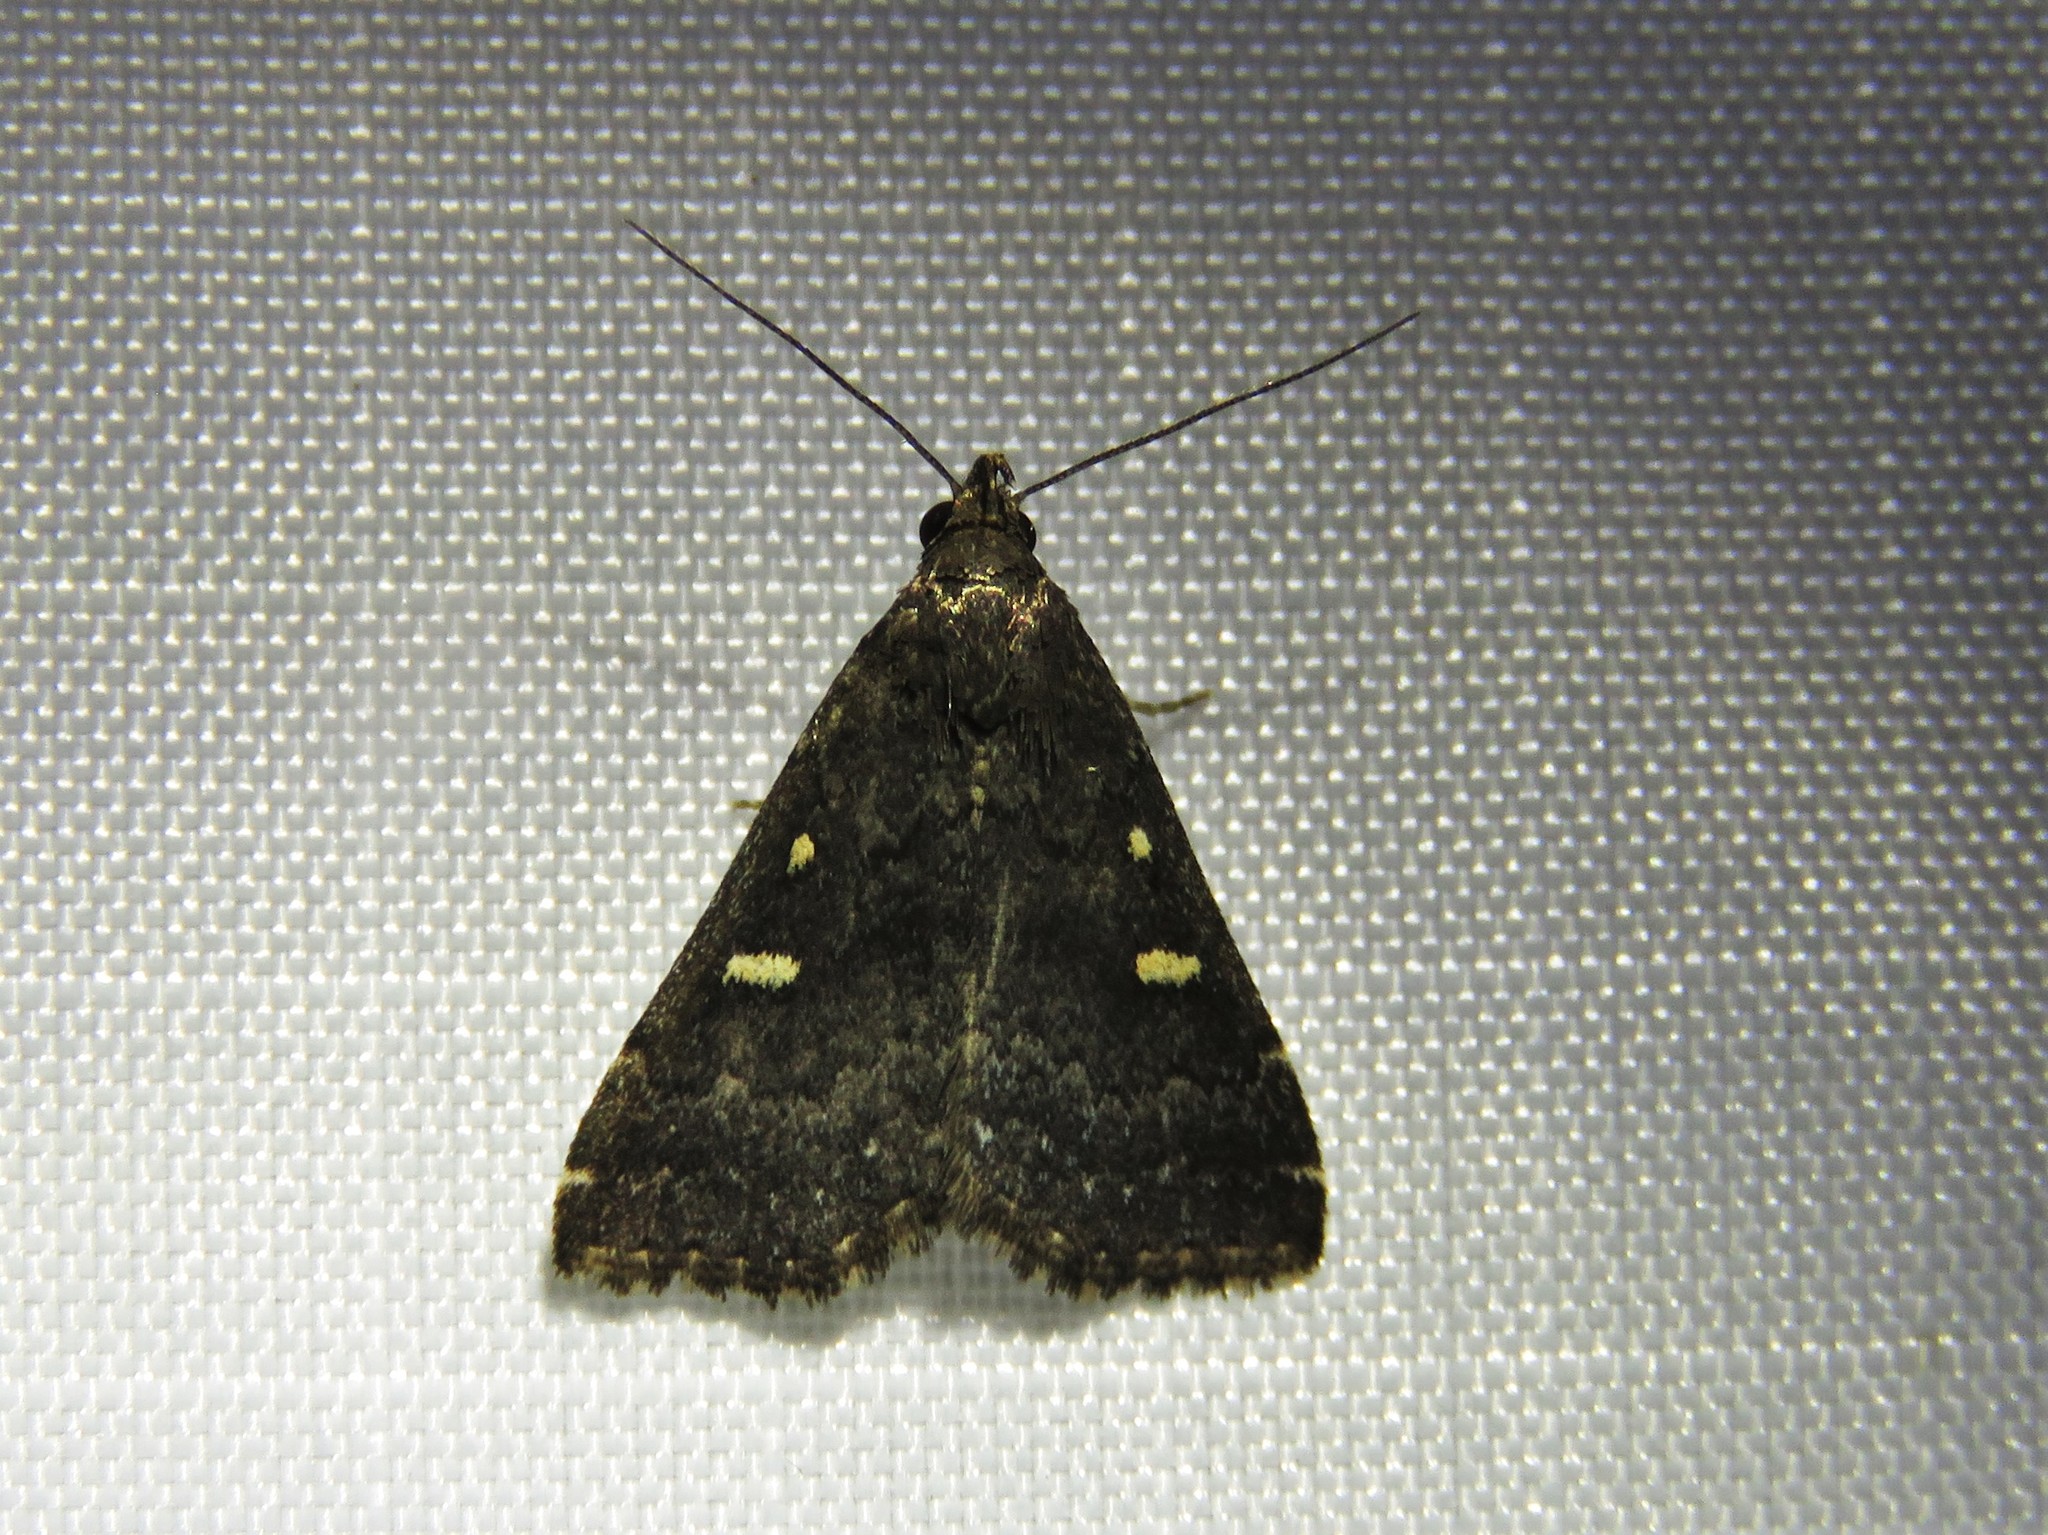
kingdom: Animalia
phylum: Arthropoda
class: Insecta
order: Lepidoptera
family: Erebidae
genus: Tetanolita
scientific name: Tetanolita mynesalis
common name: Smoky tetanolita moth
